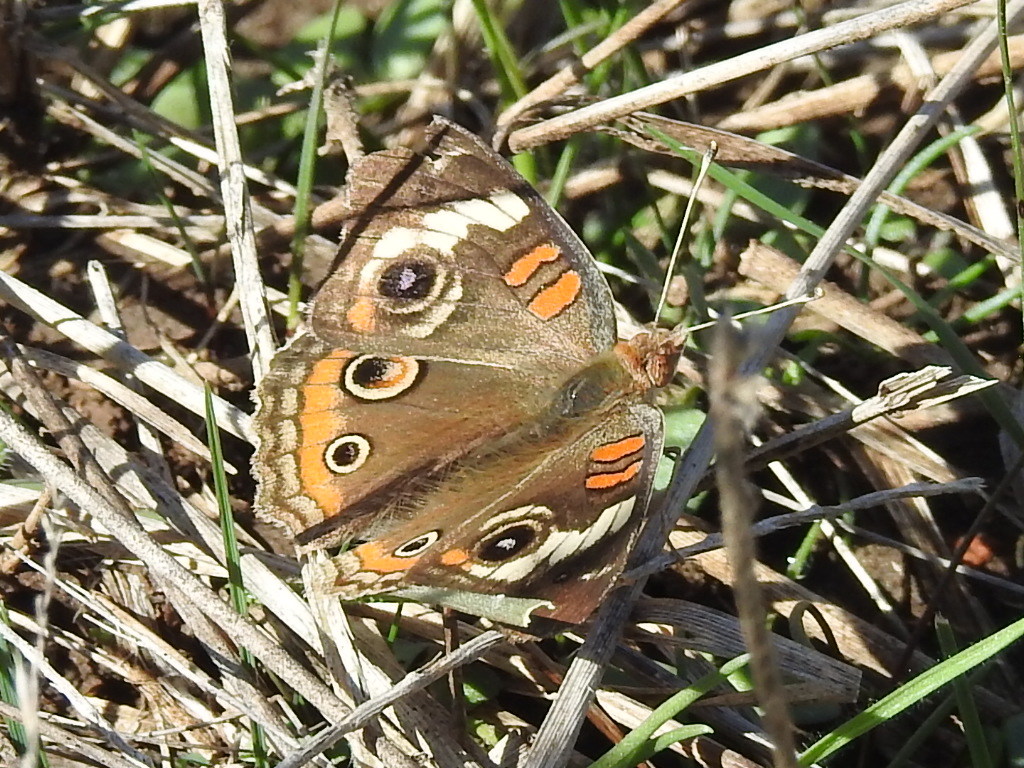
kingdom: Animalia
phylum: Arthropoda
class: Insecta
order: Lepidoptera
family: Nymphalidae
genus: Junonia
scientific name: Junonia coenia
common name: Common buckeye
